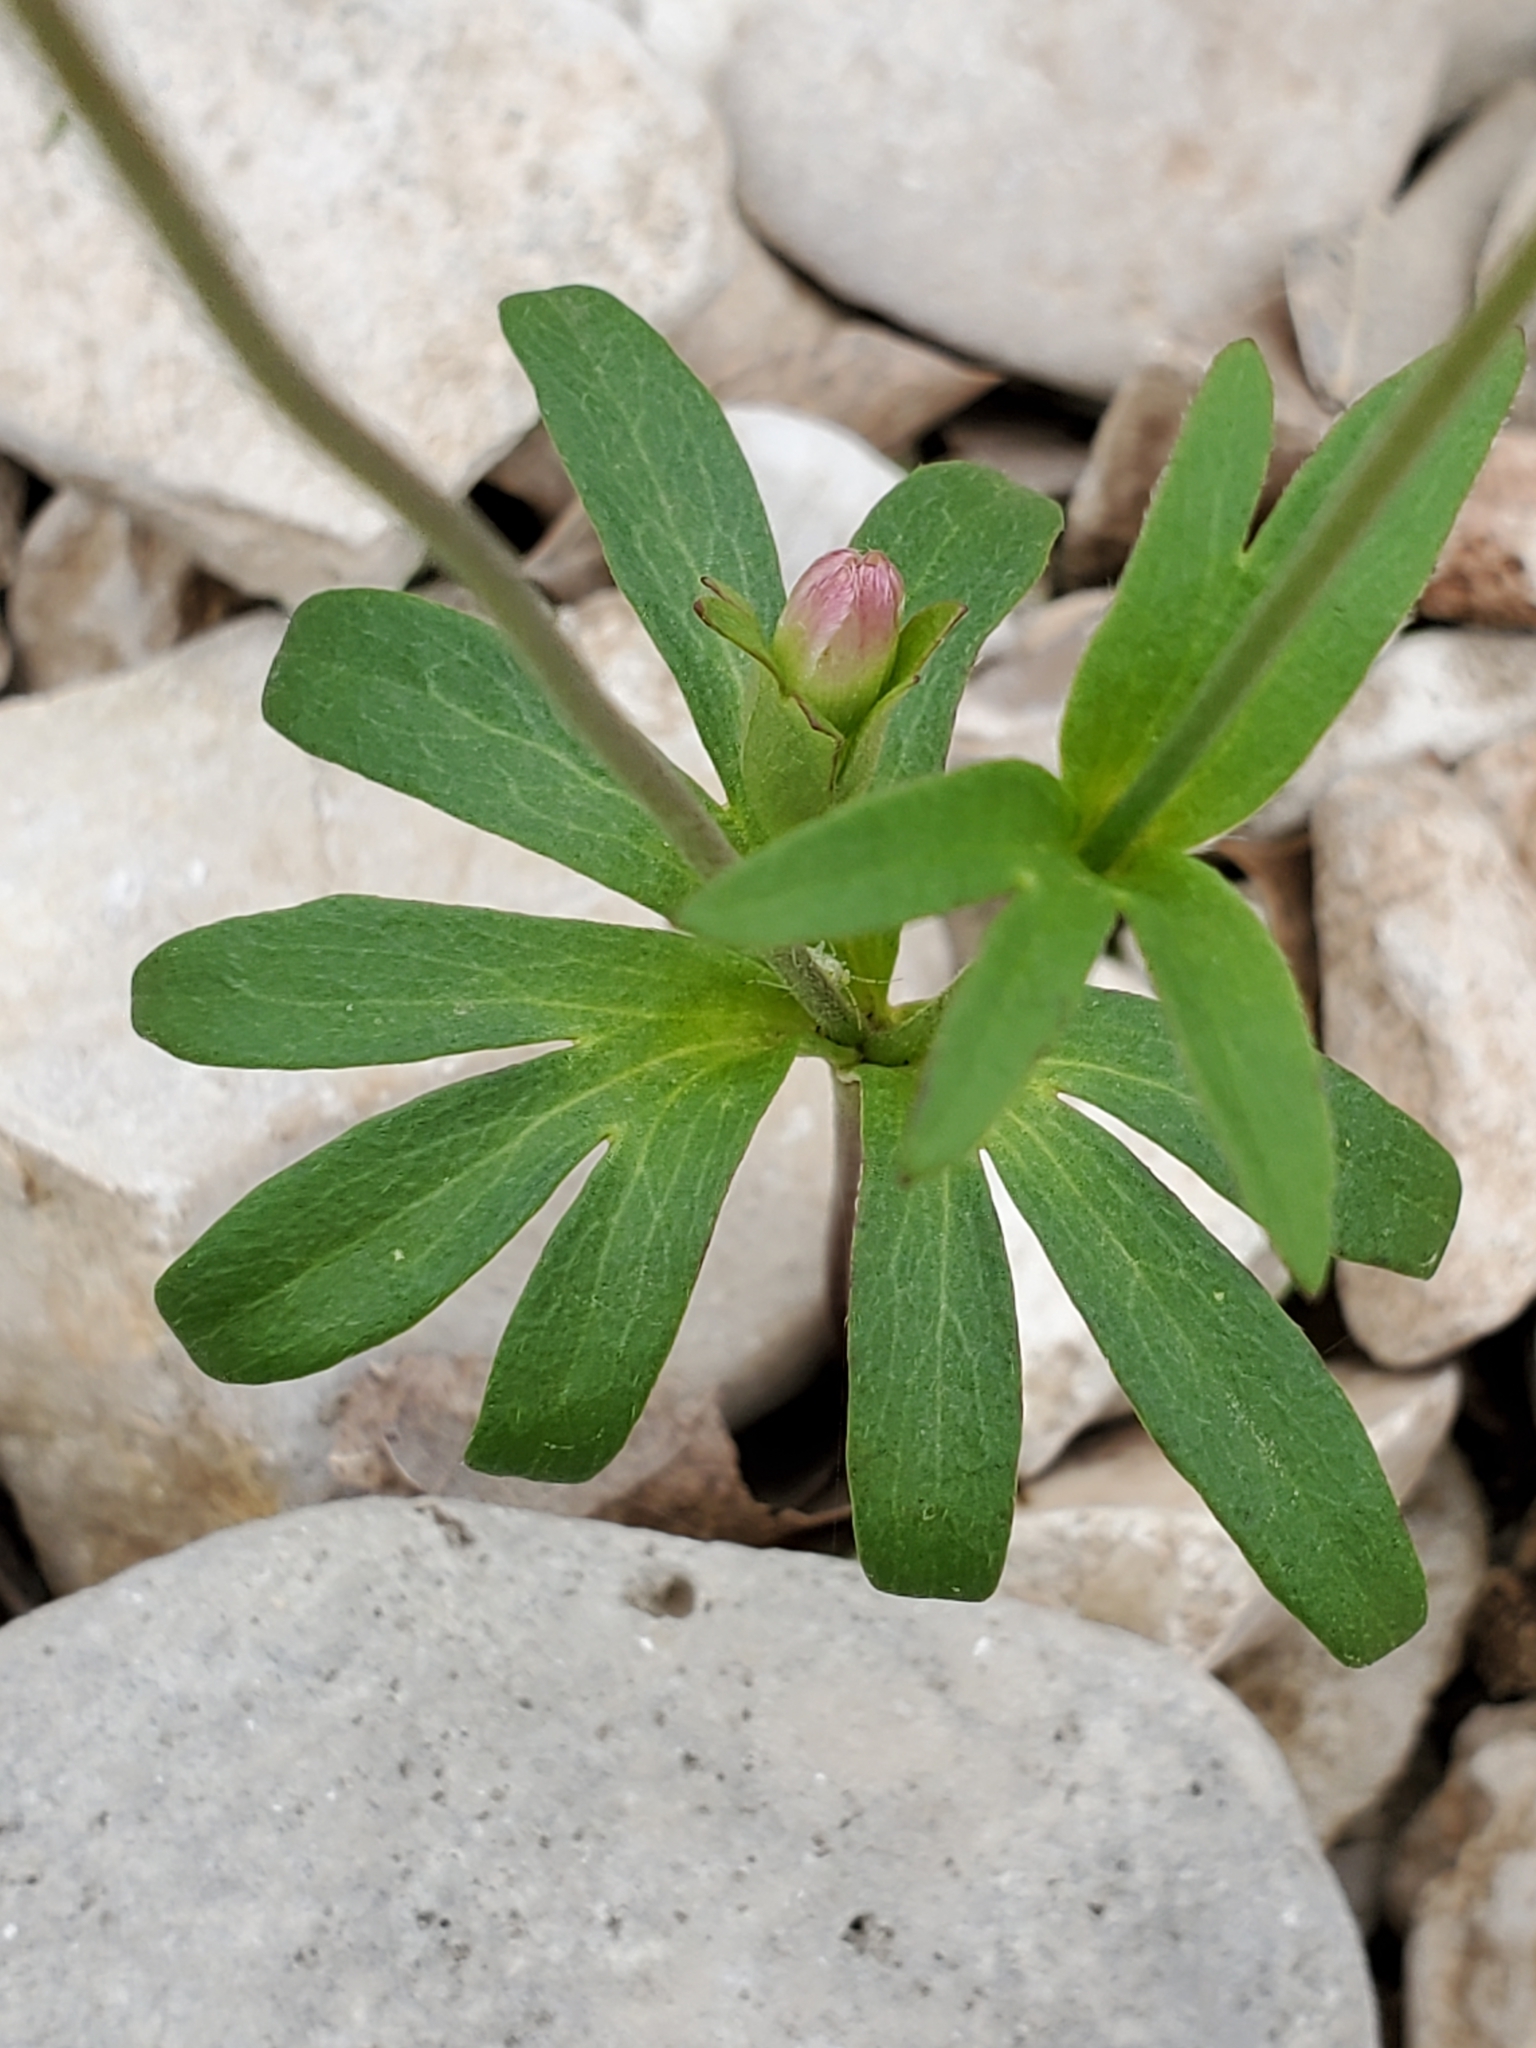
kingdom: Plantae
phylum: Tracheophyta
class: Magnoliopsida
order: Ranunculales
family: Ranunculaceae
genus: Anemone
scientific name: Anemone edwardsiana
